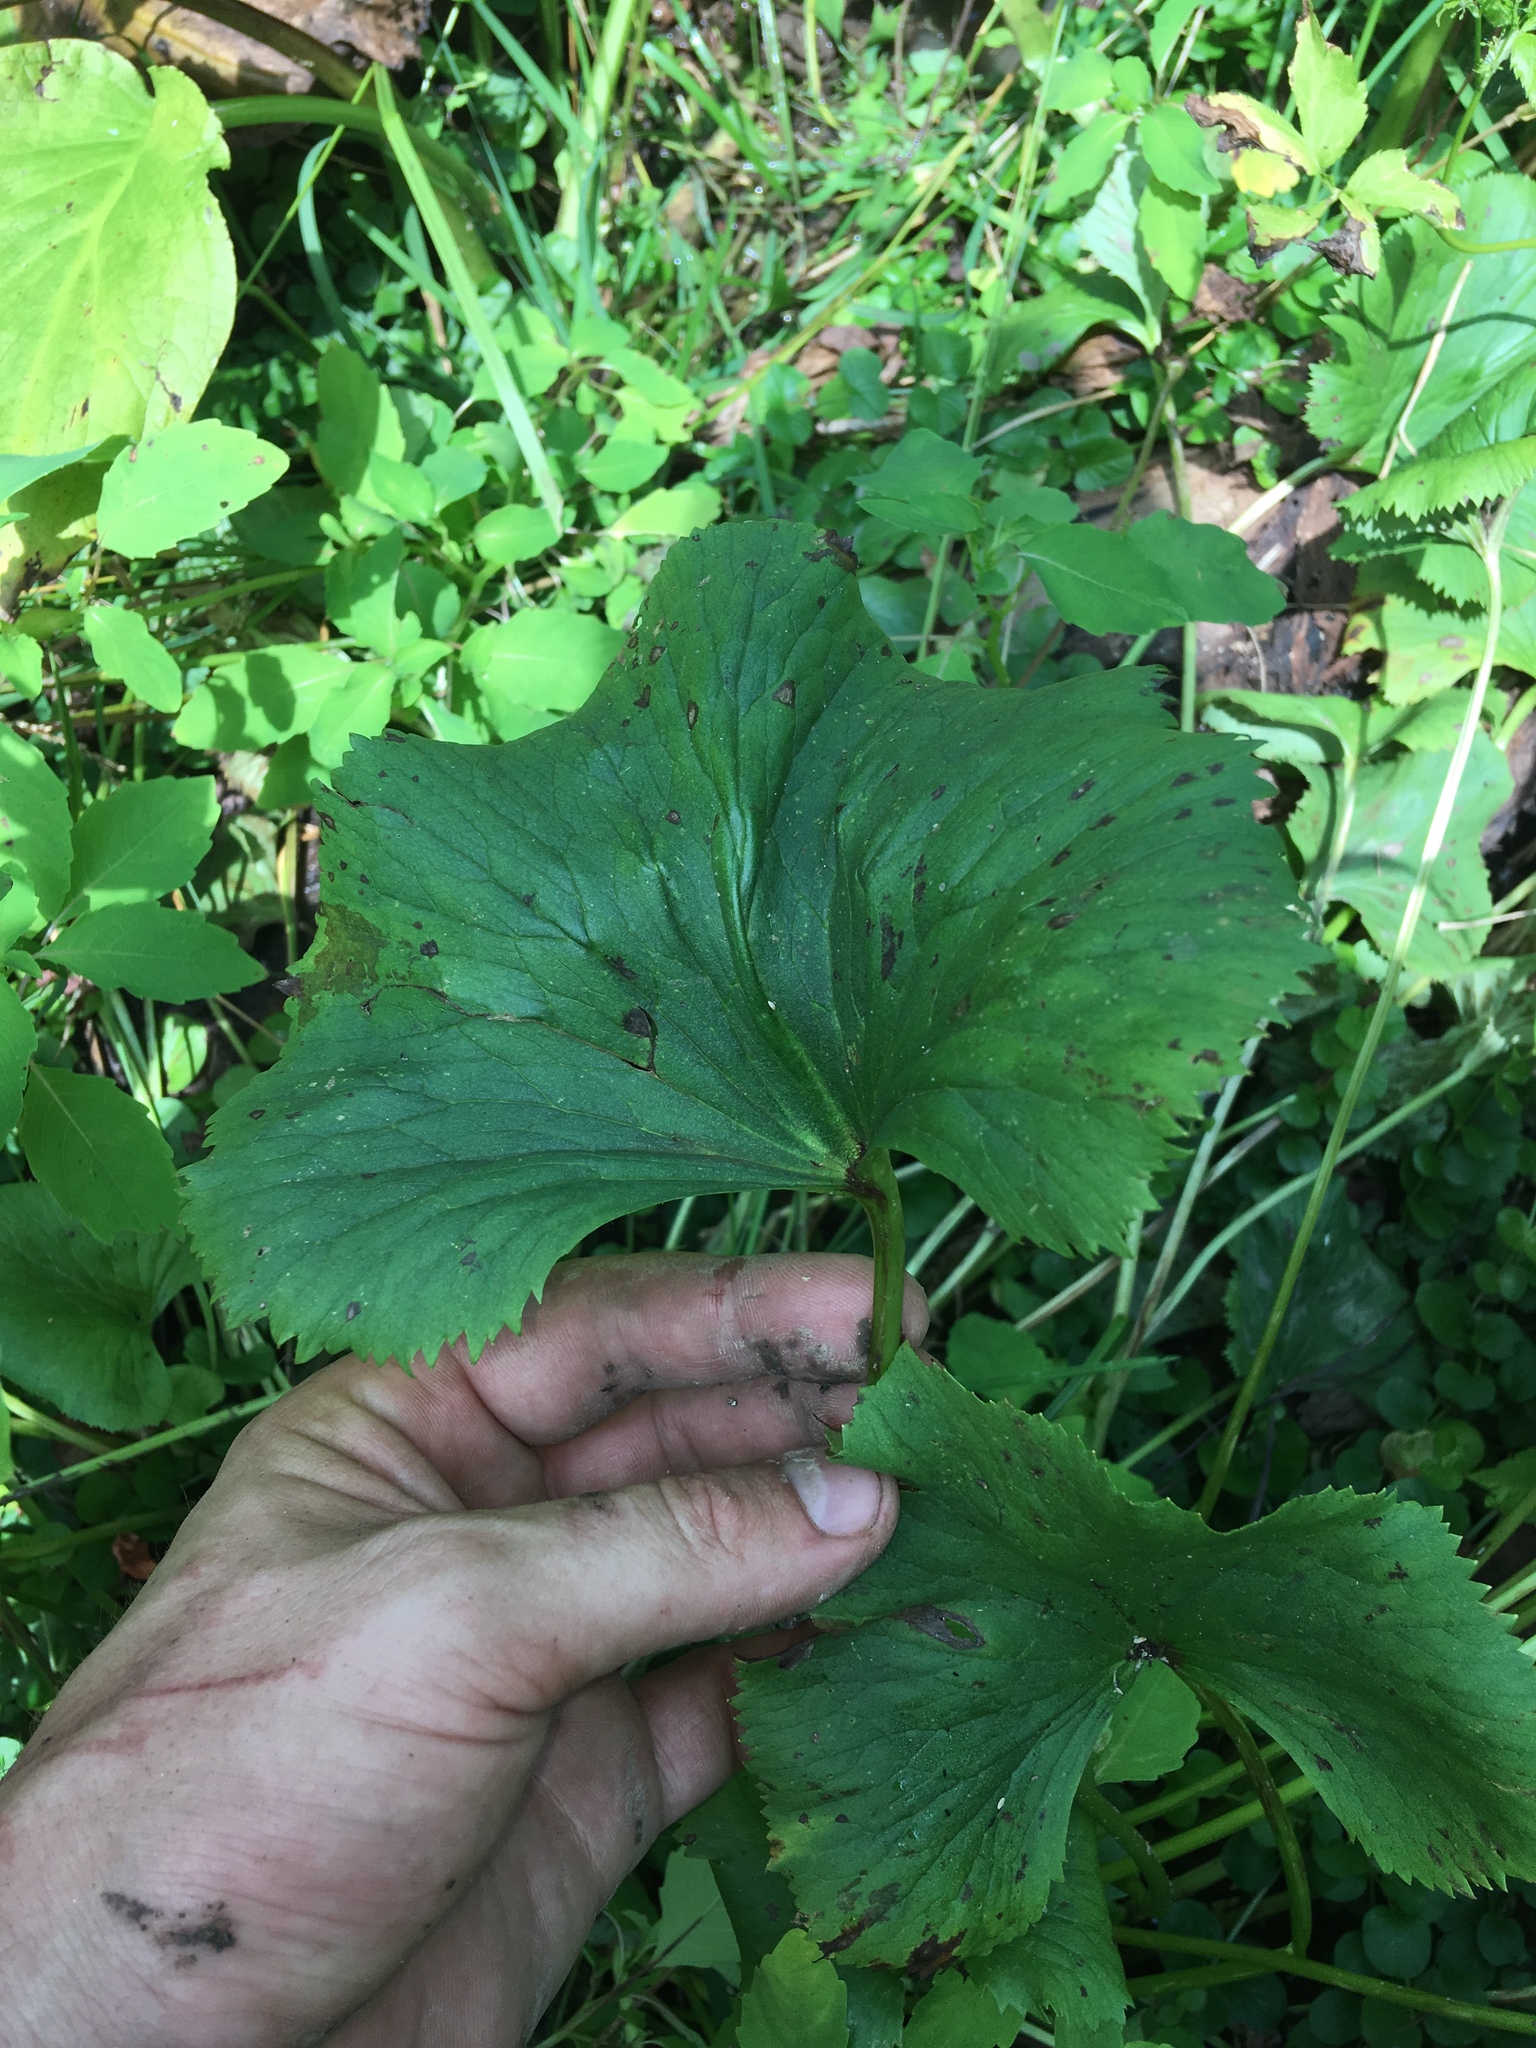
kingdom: Plantae
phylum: Tracheophyta
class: Magnoliopsida
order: Ranunculales
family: Ranunculaceae
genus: Caltha
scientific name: Caltha palustris
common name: Marsh marigold
